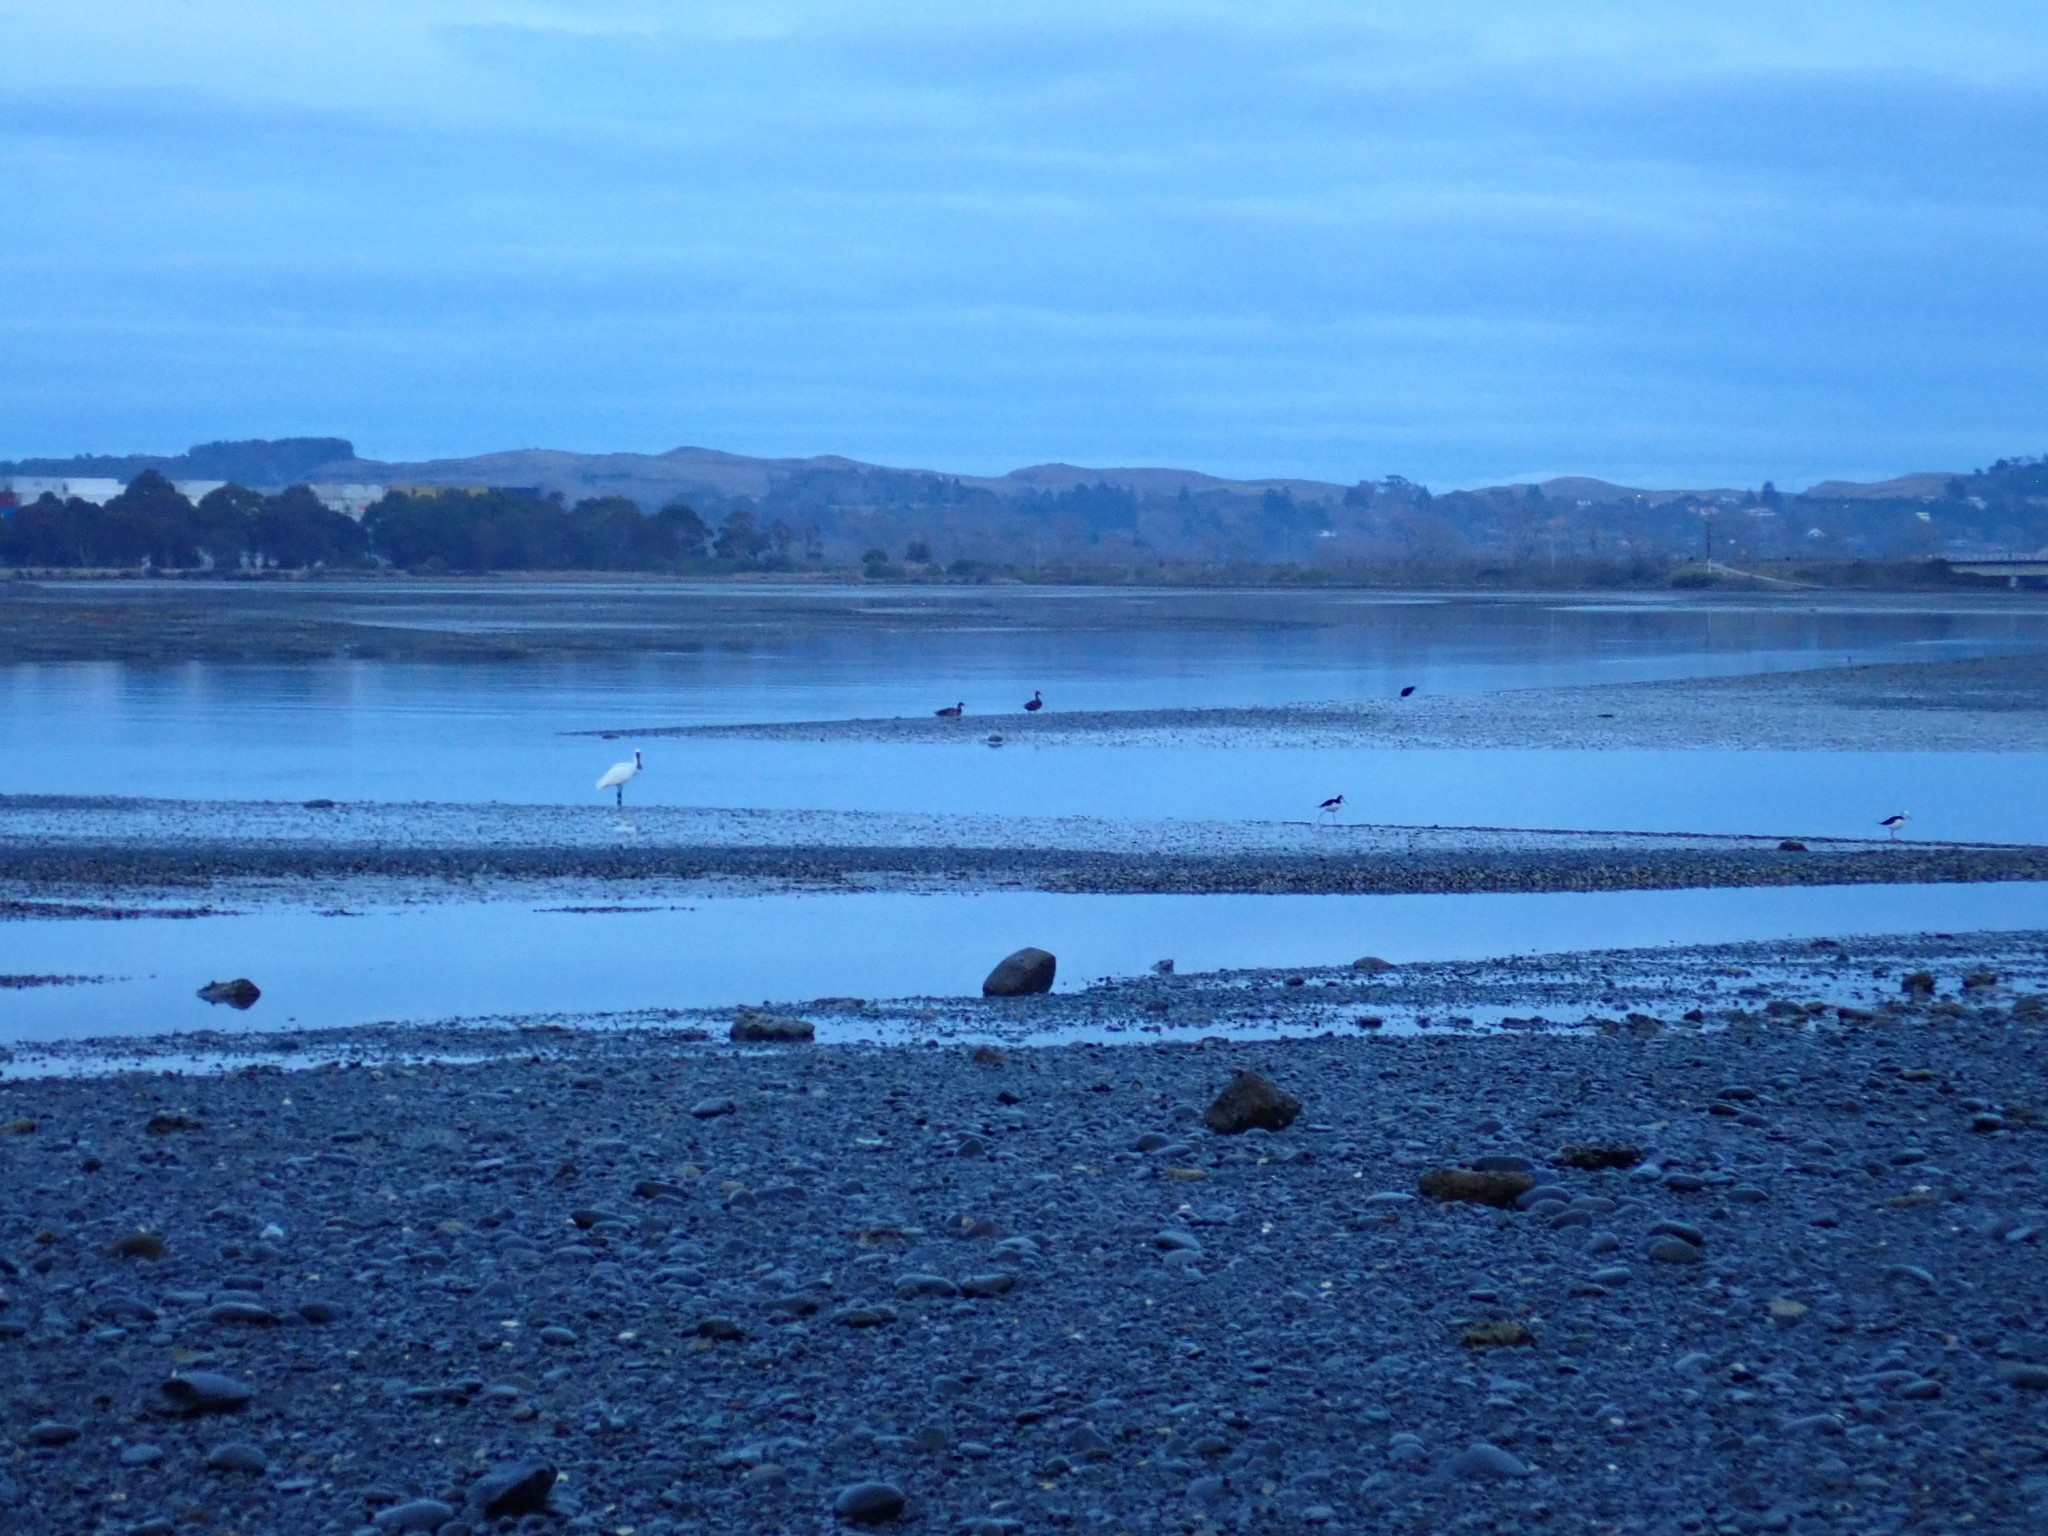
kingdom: Animalia
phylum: Chordata
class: Aves
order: Pelecaniformes
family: Threskiornithidae
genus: Platalea
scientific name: Platalea regia
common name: Royal spoonbill
